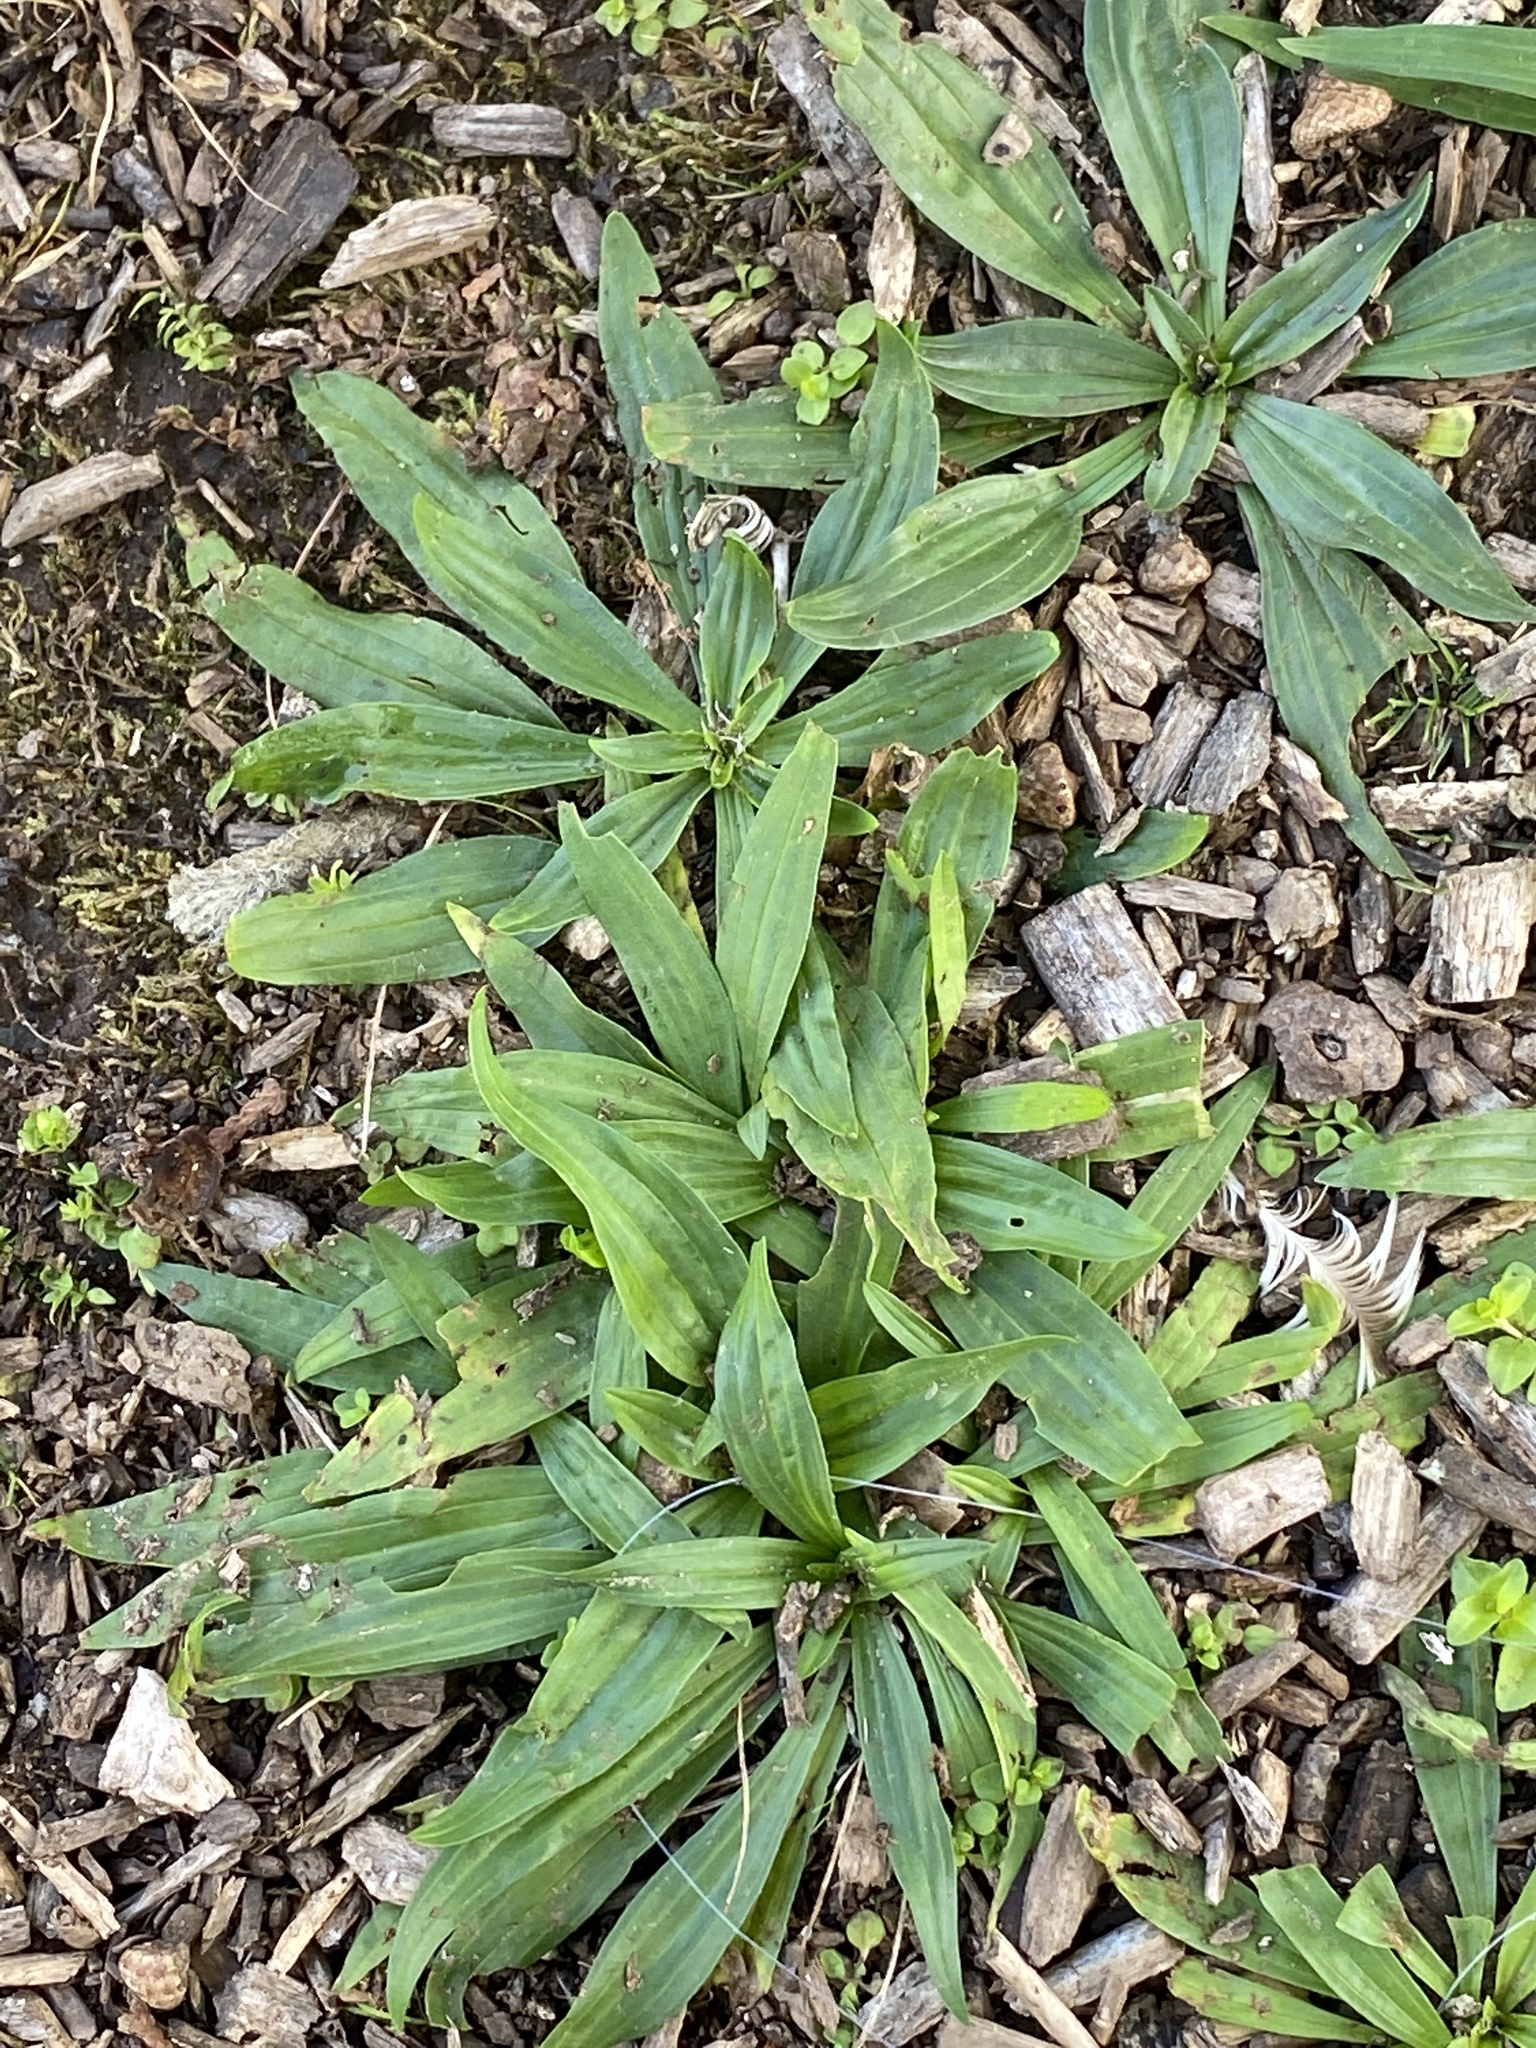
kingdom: Plantae
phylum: Tracheophyta
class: Magnoliopsida
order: Lamiales
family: Plantaginaceae
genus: Plantago
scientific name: Plantago lanceolata
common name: Ribwort plantain
